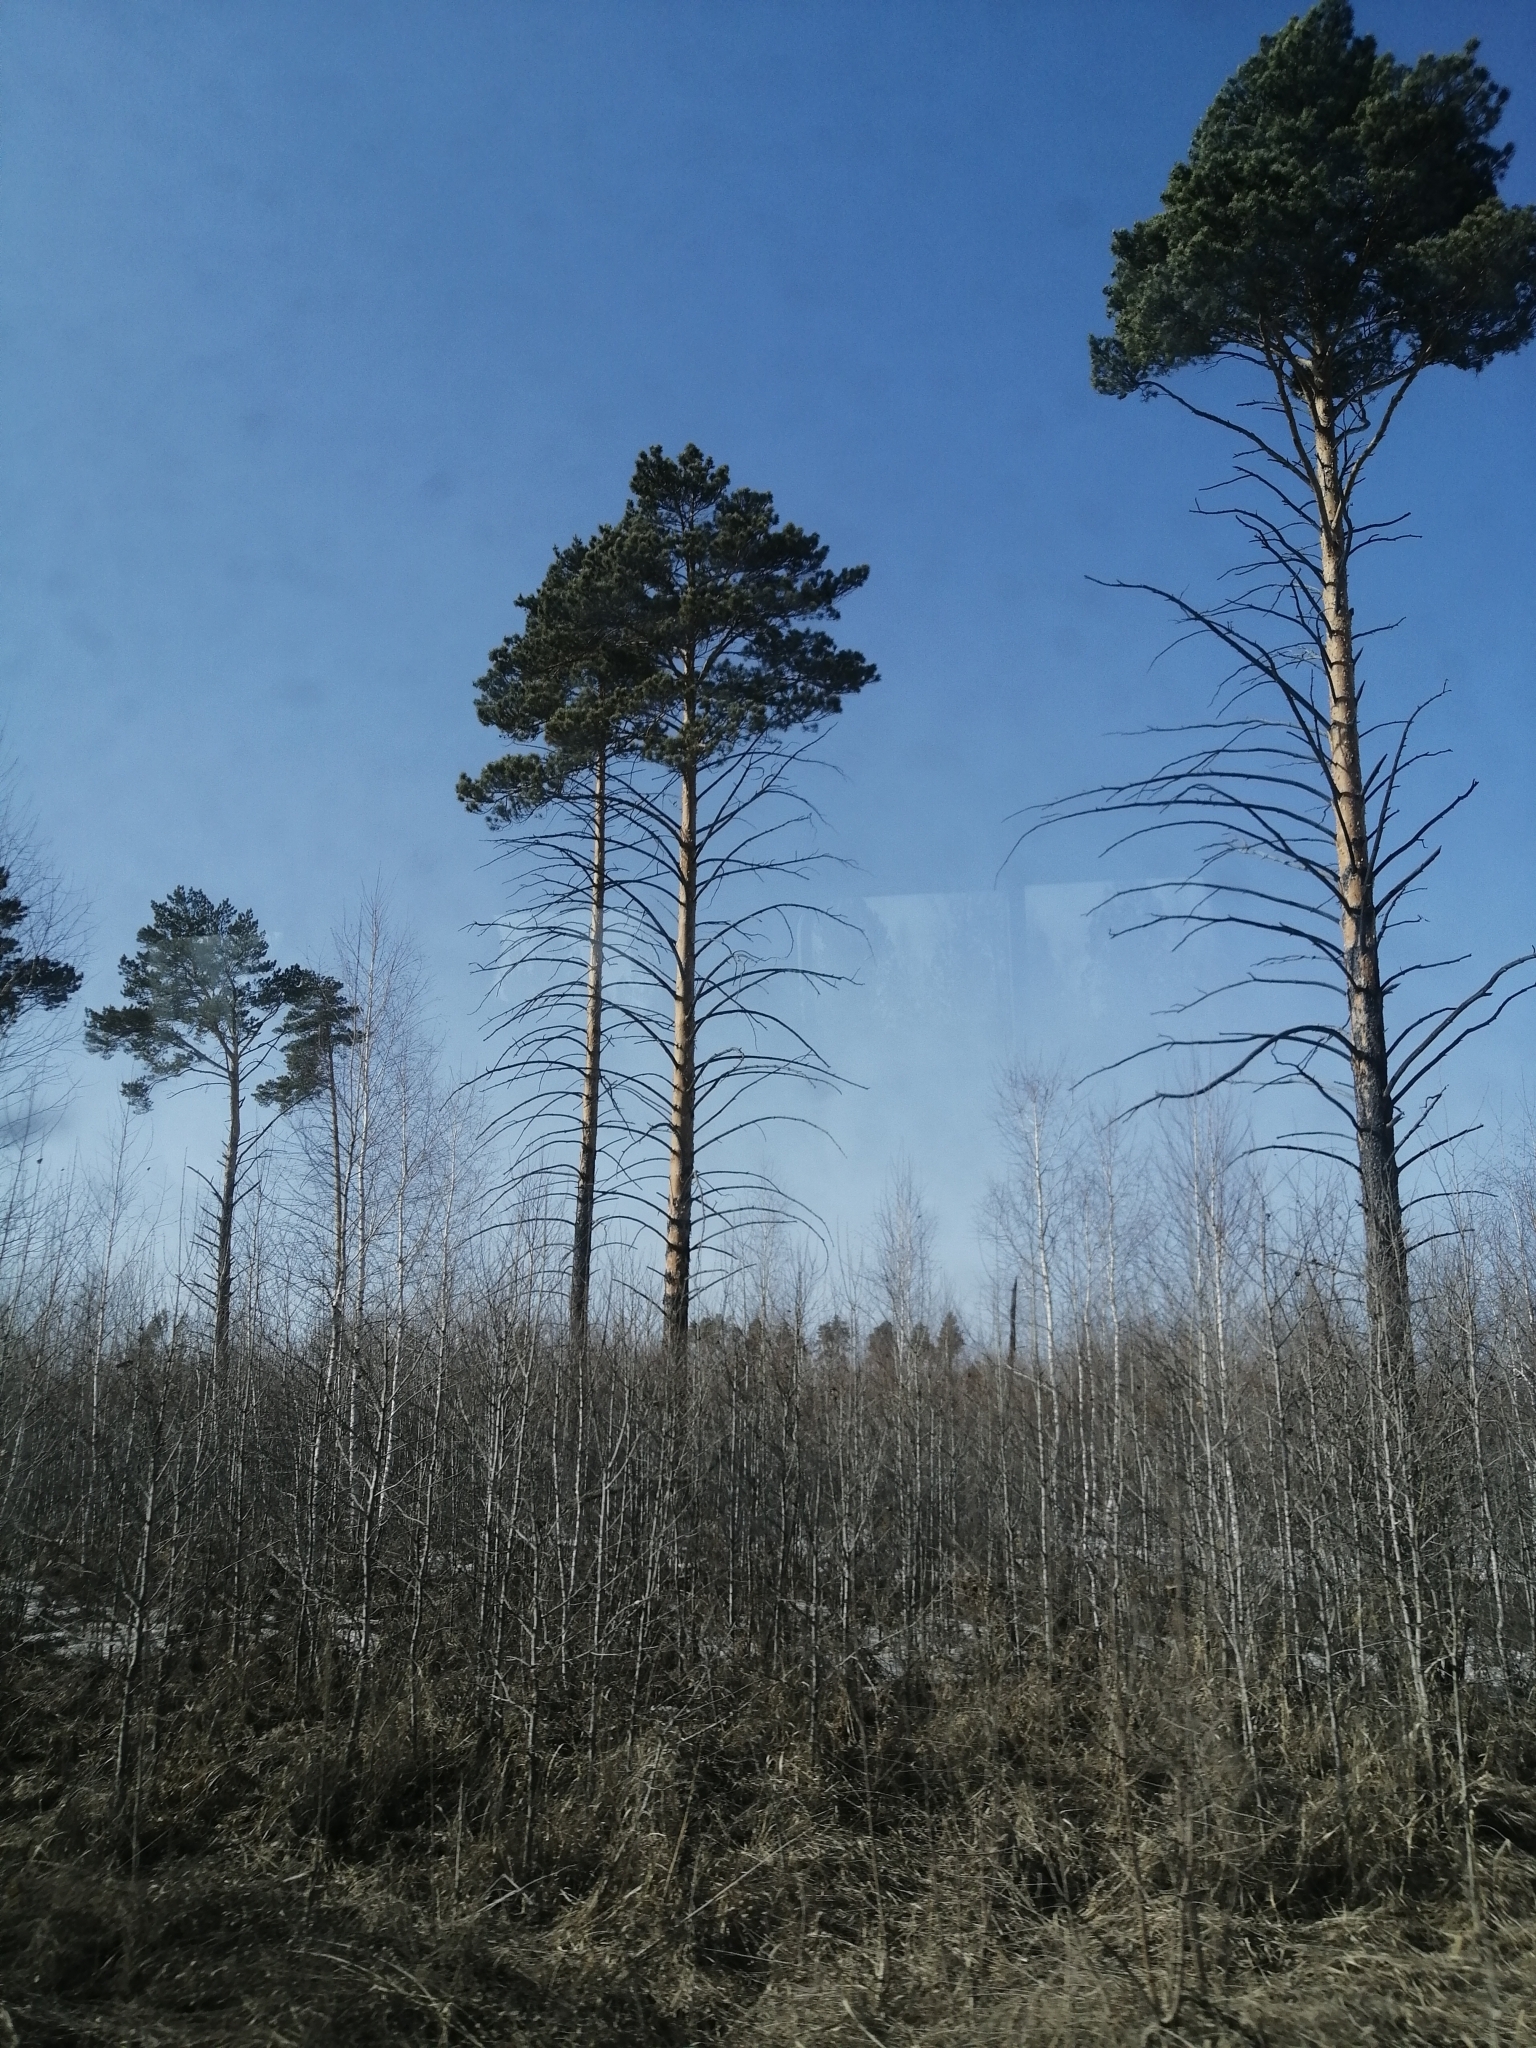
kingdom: Plantae
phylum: Tracheophyta
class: Pinopsida
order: Pinales
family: Pinaceae
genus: Pinus
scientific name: Pinus sylvestris
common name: Scots pine
